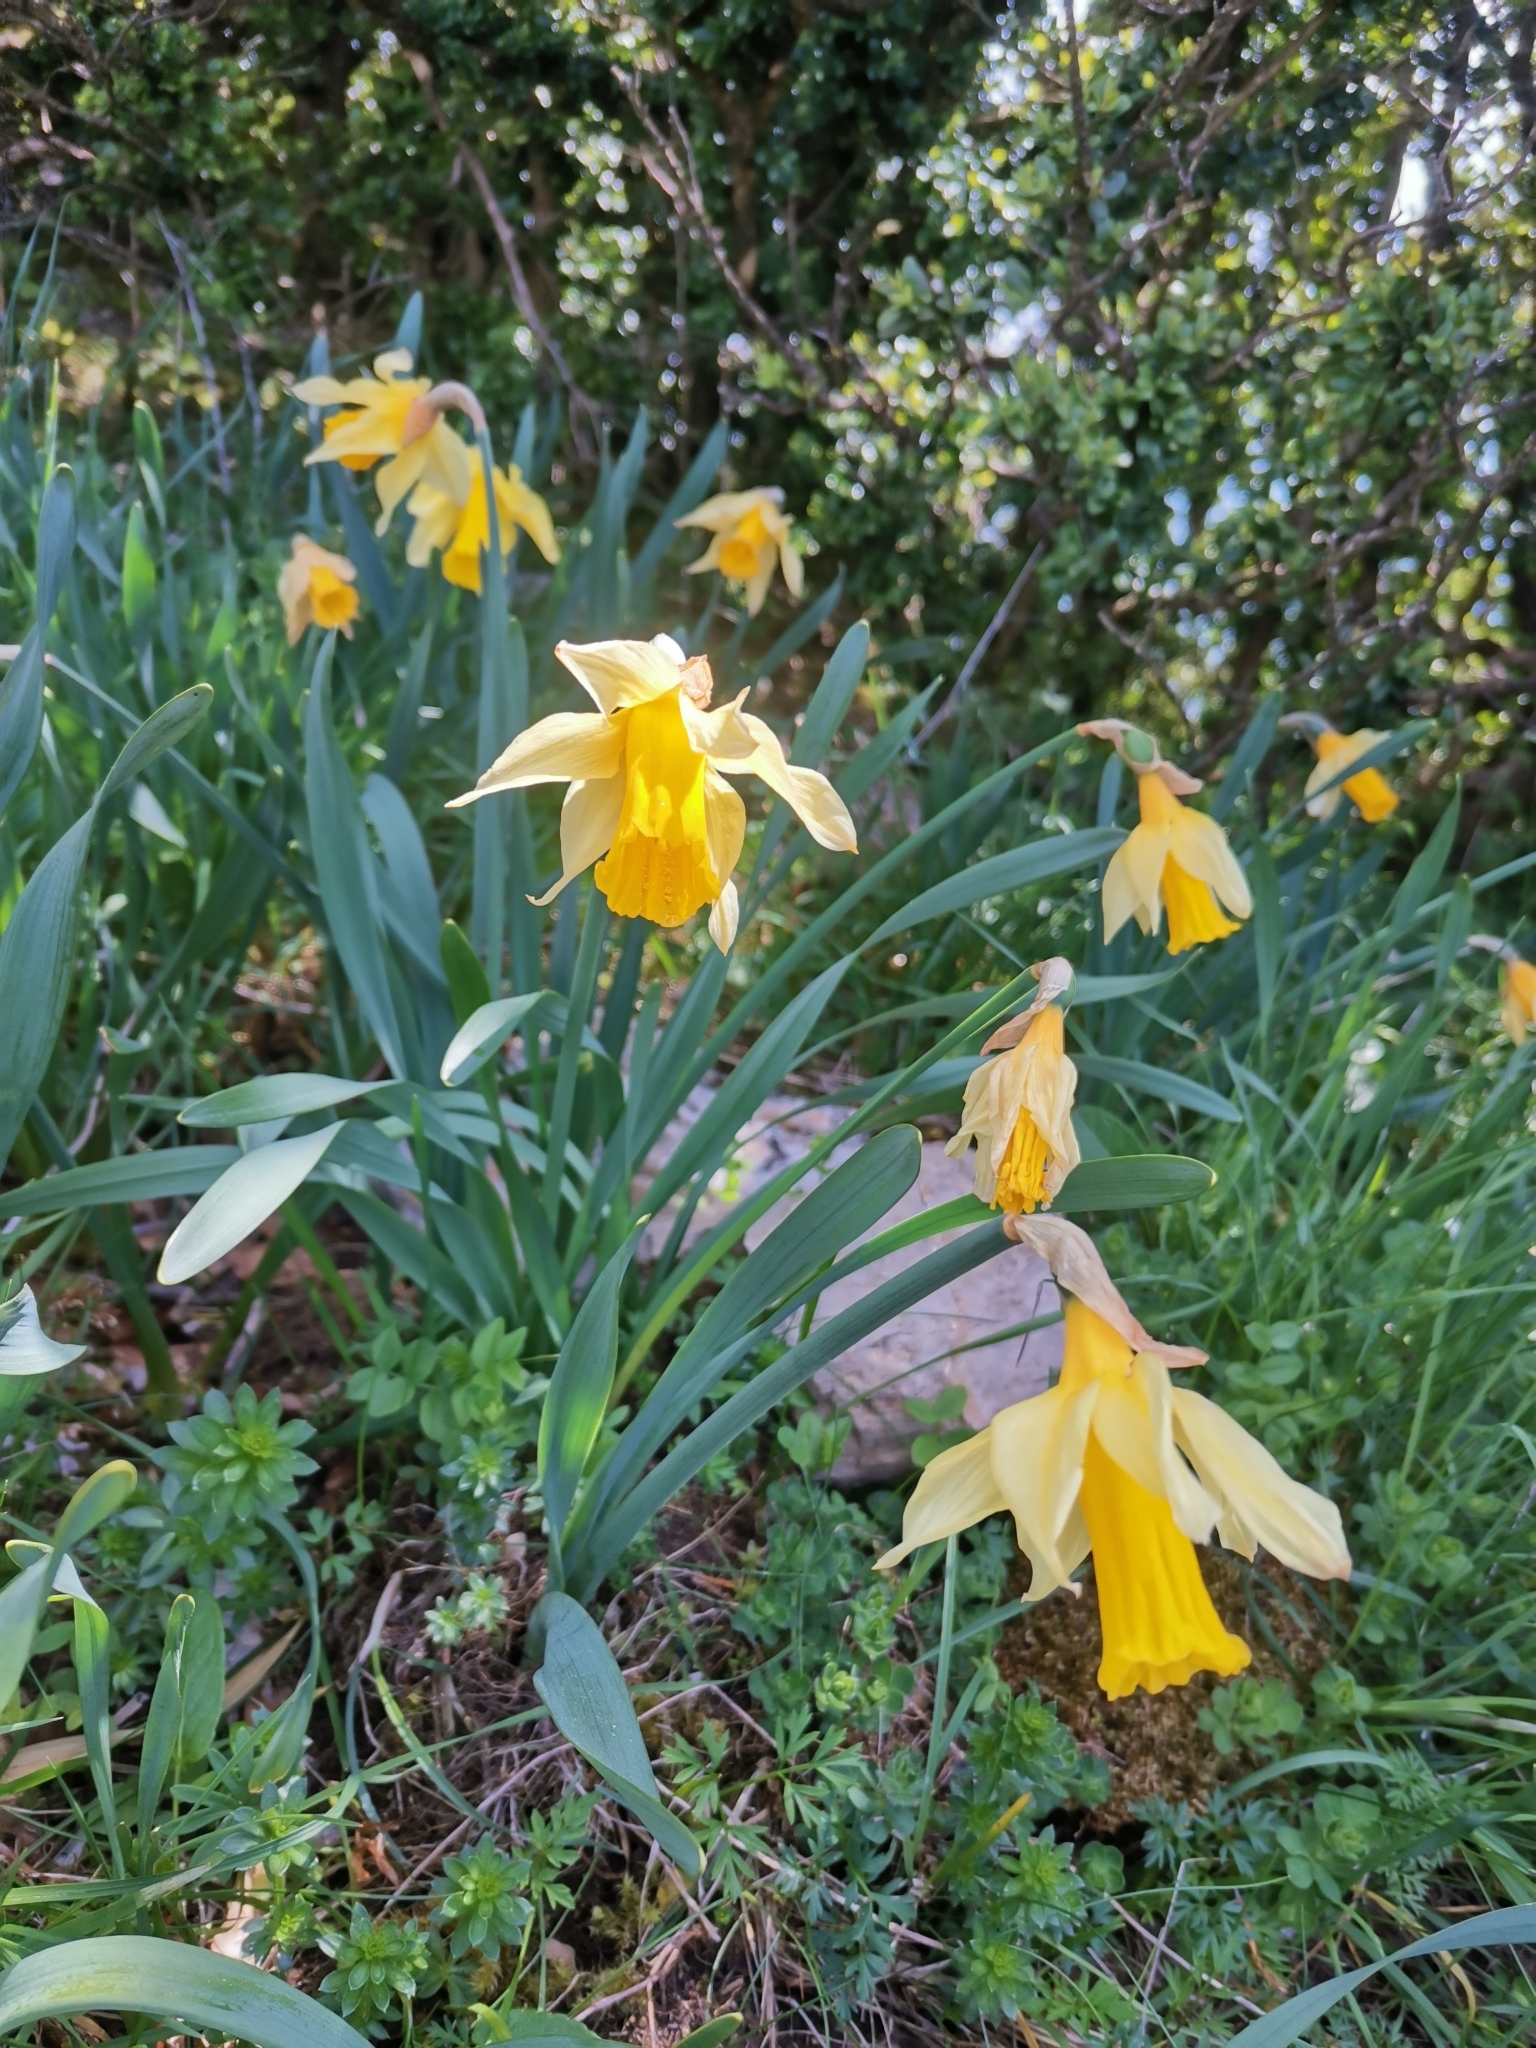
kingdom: Plantae
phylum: Tracheophyta
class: Liliopsida
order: Asparagales
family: Amaryllidaceae
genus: Narcissus
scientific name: Narcissus pseudonarcissus
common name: Daffodil
